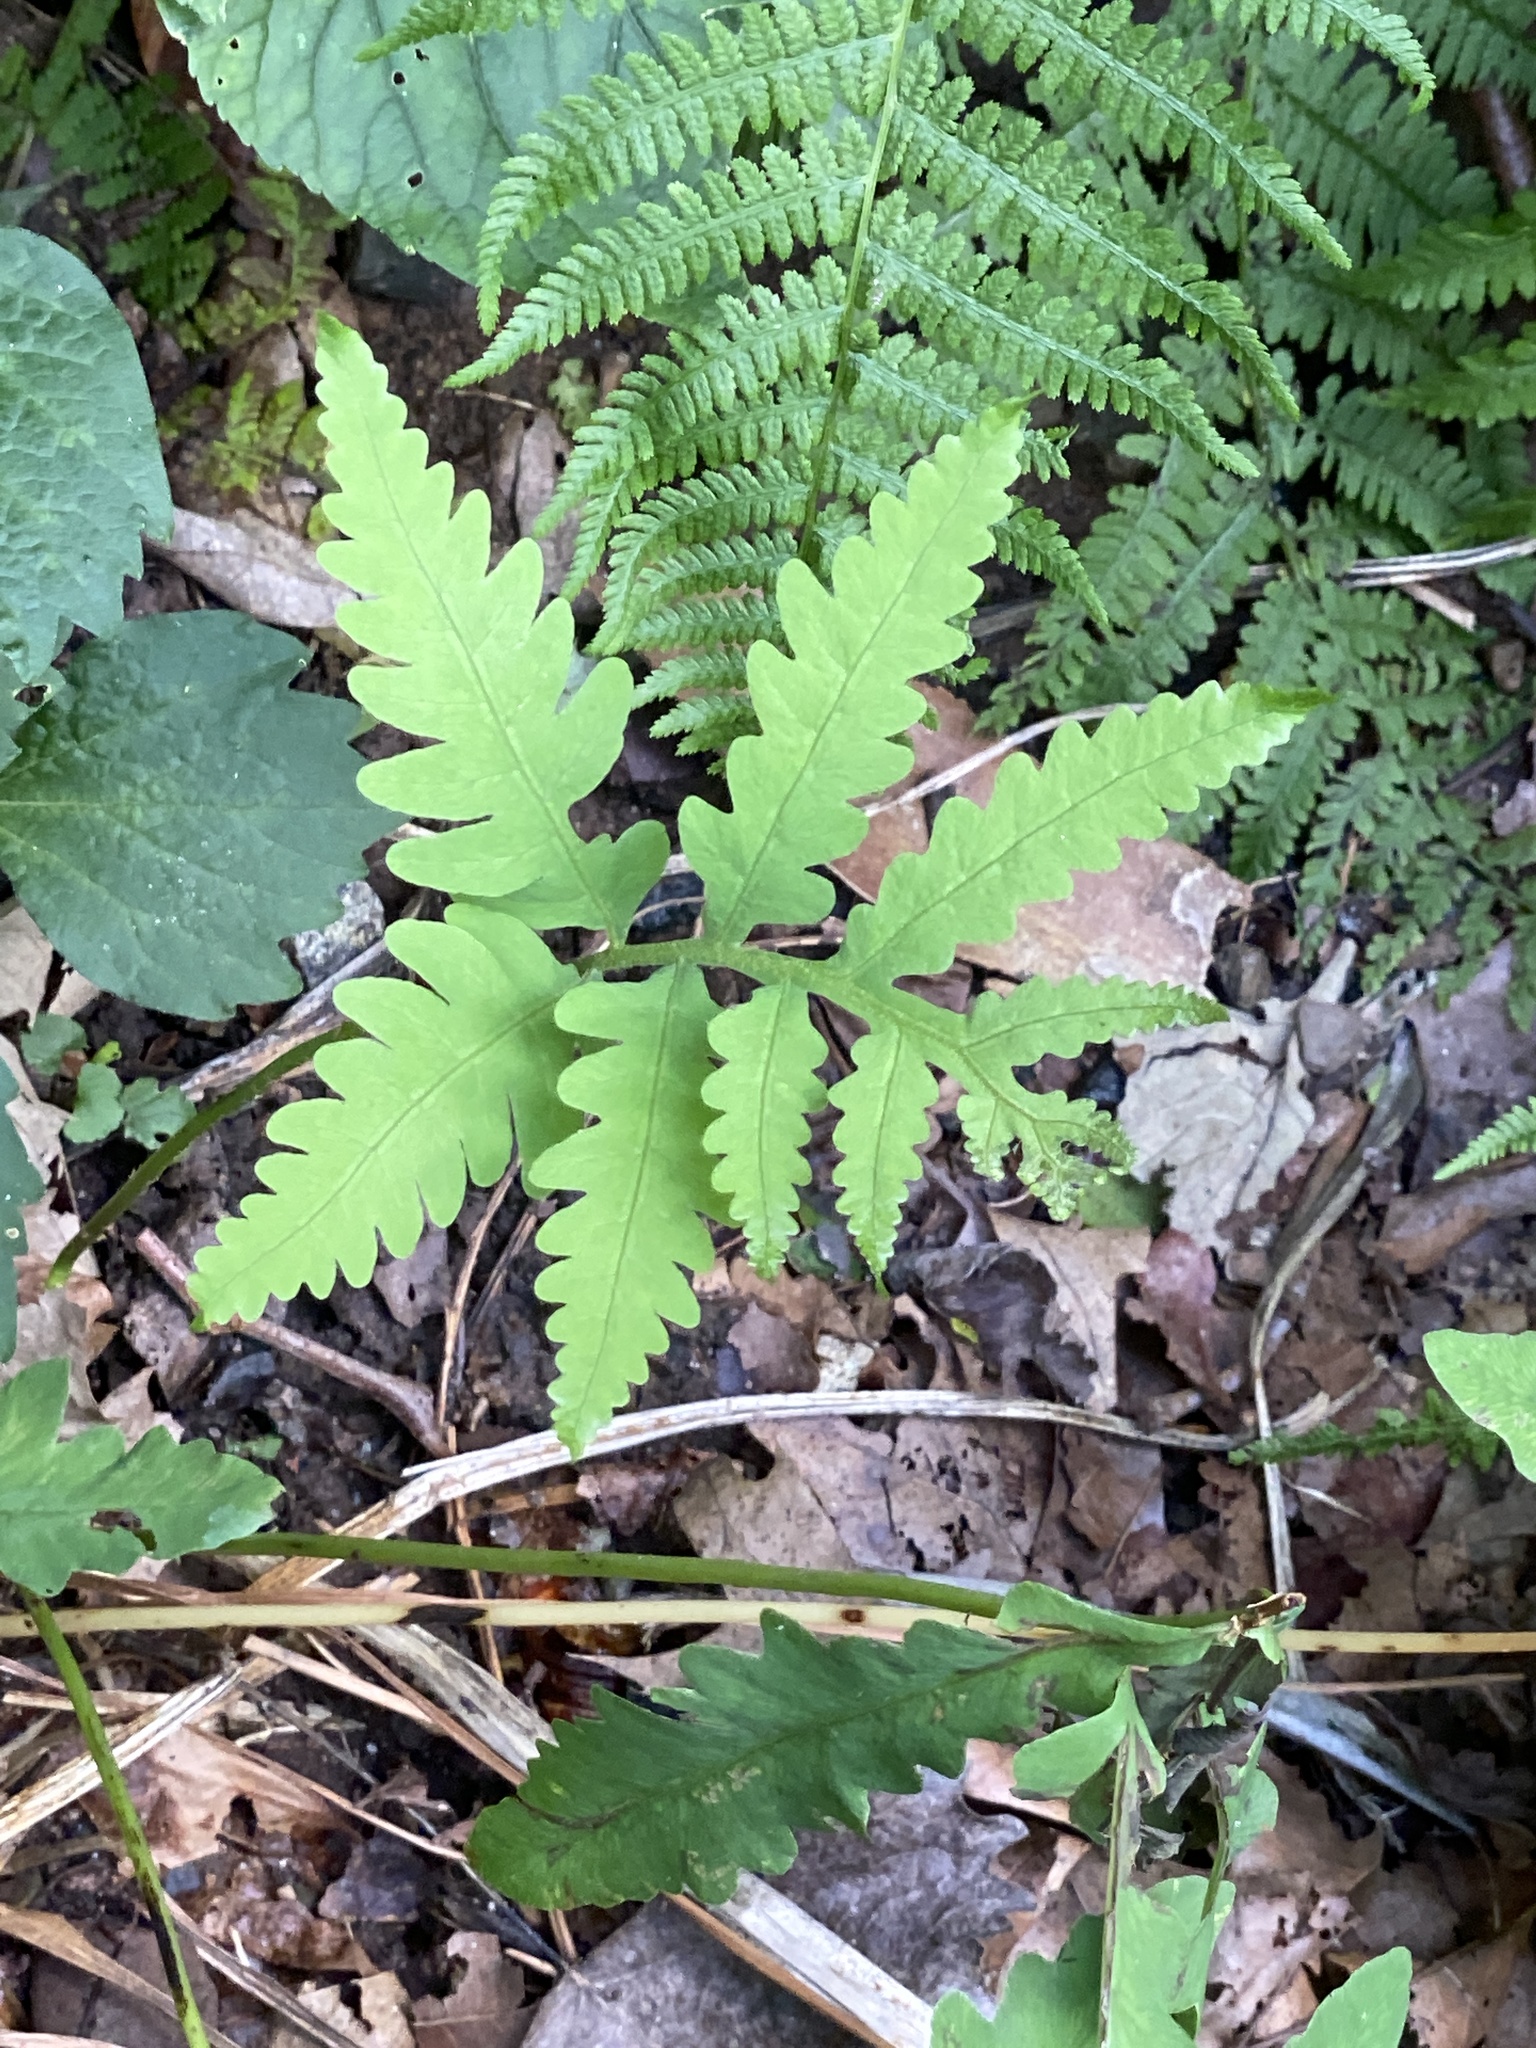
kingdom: Plantae
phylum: Tracheophyta
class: Polypodiopsida
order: Polypodiales
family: Onocleaceae
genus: Onoclea
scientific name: Onoclea sensibilis
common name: Sensitive fern
